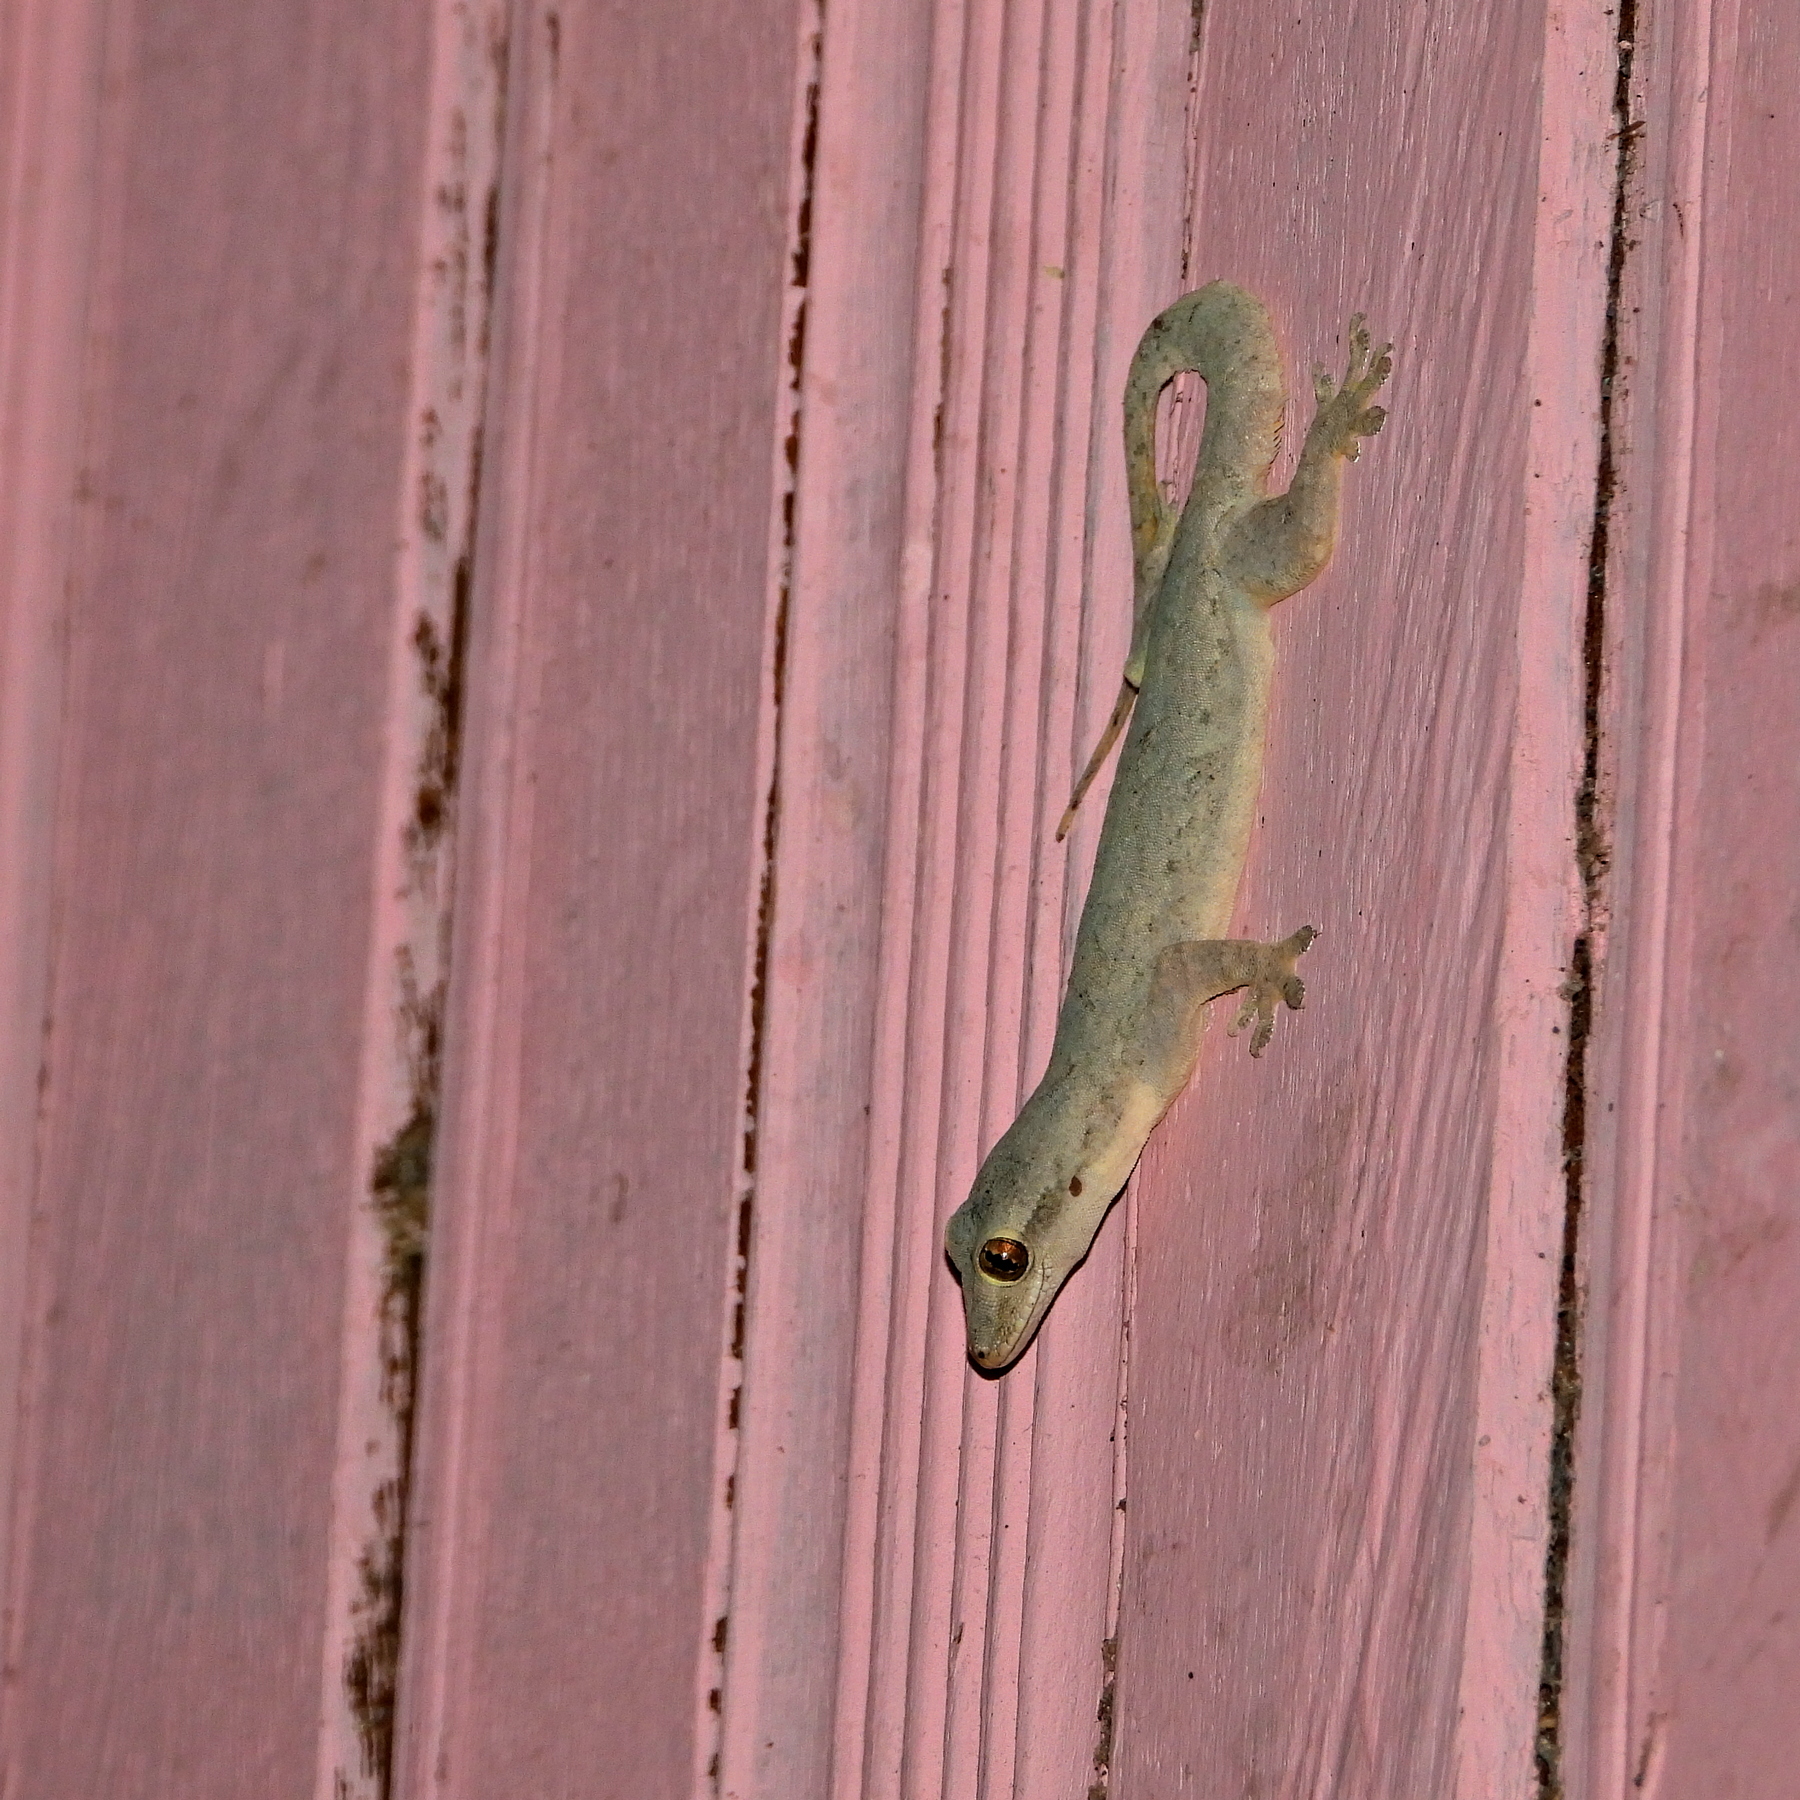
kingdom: Animalia
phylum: Chordata
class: Squamata
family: Gekkonidae
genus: Hemidactylus
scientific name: Hemidactylus platyurus
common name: Flat-tailed house gecko
